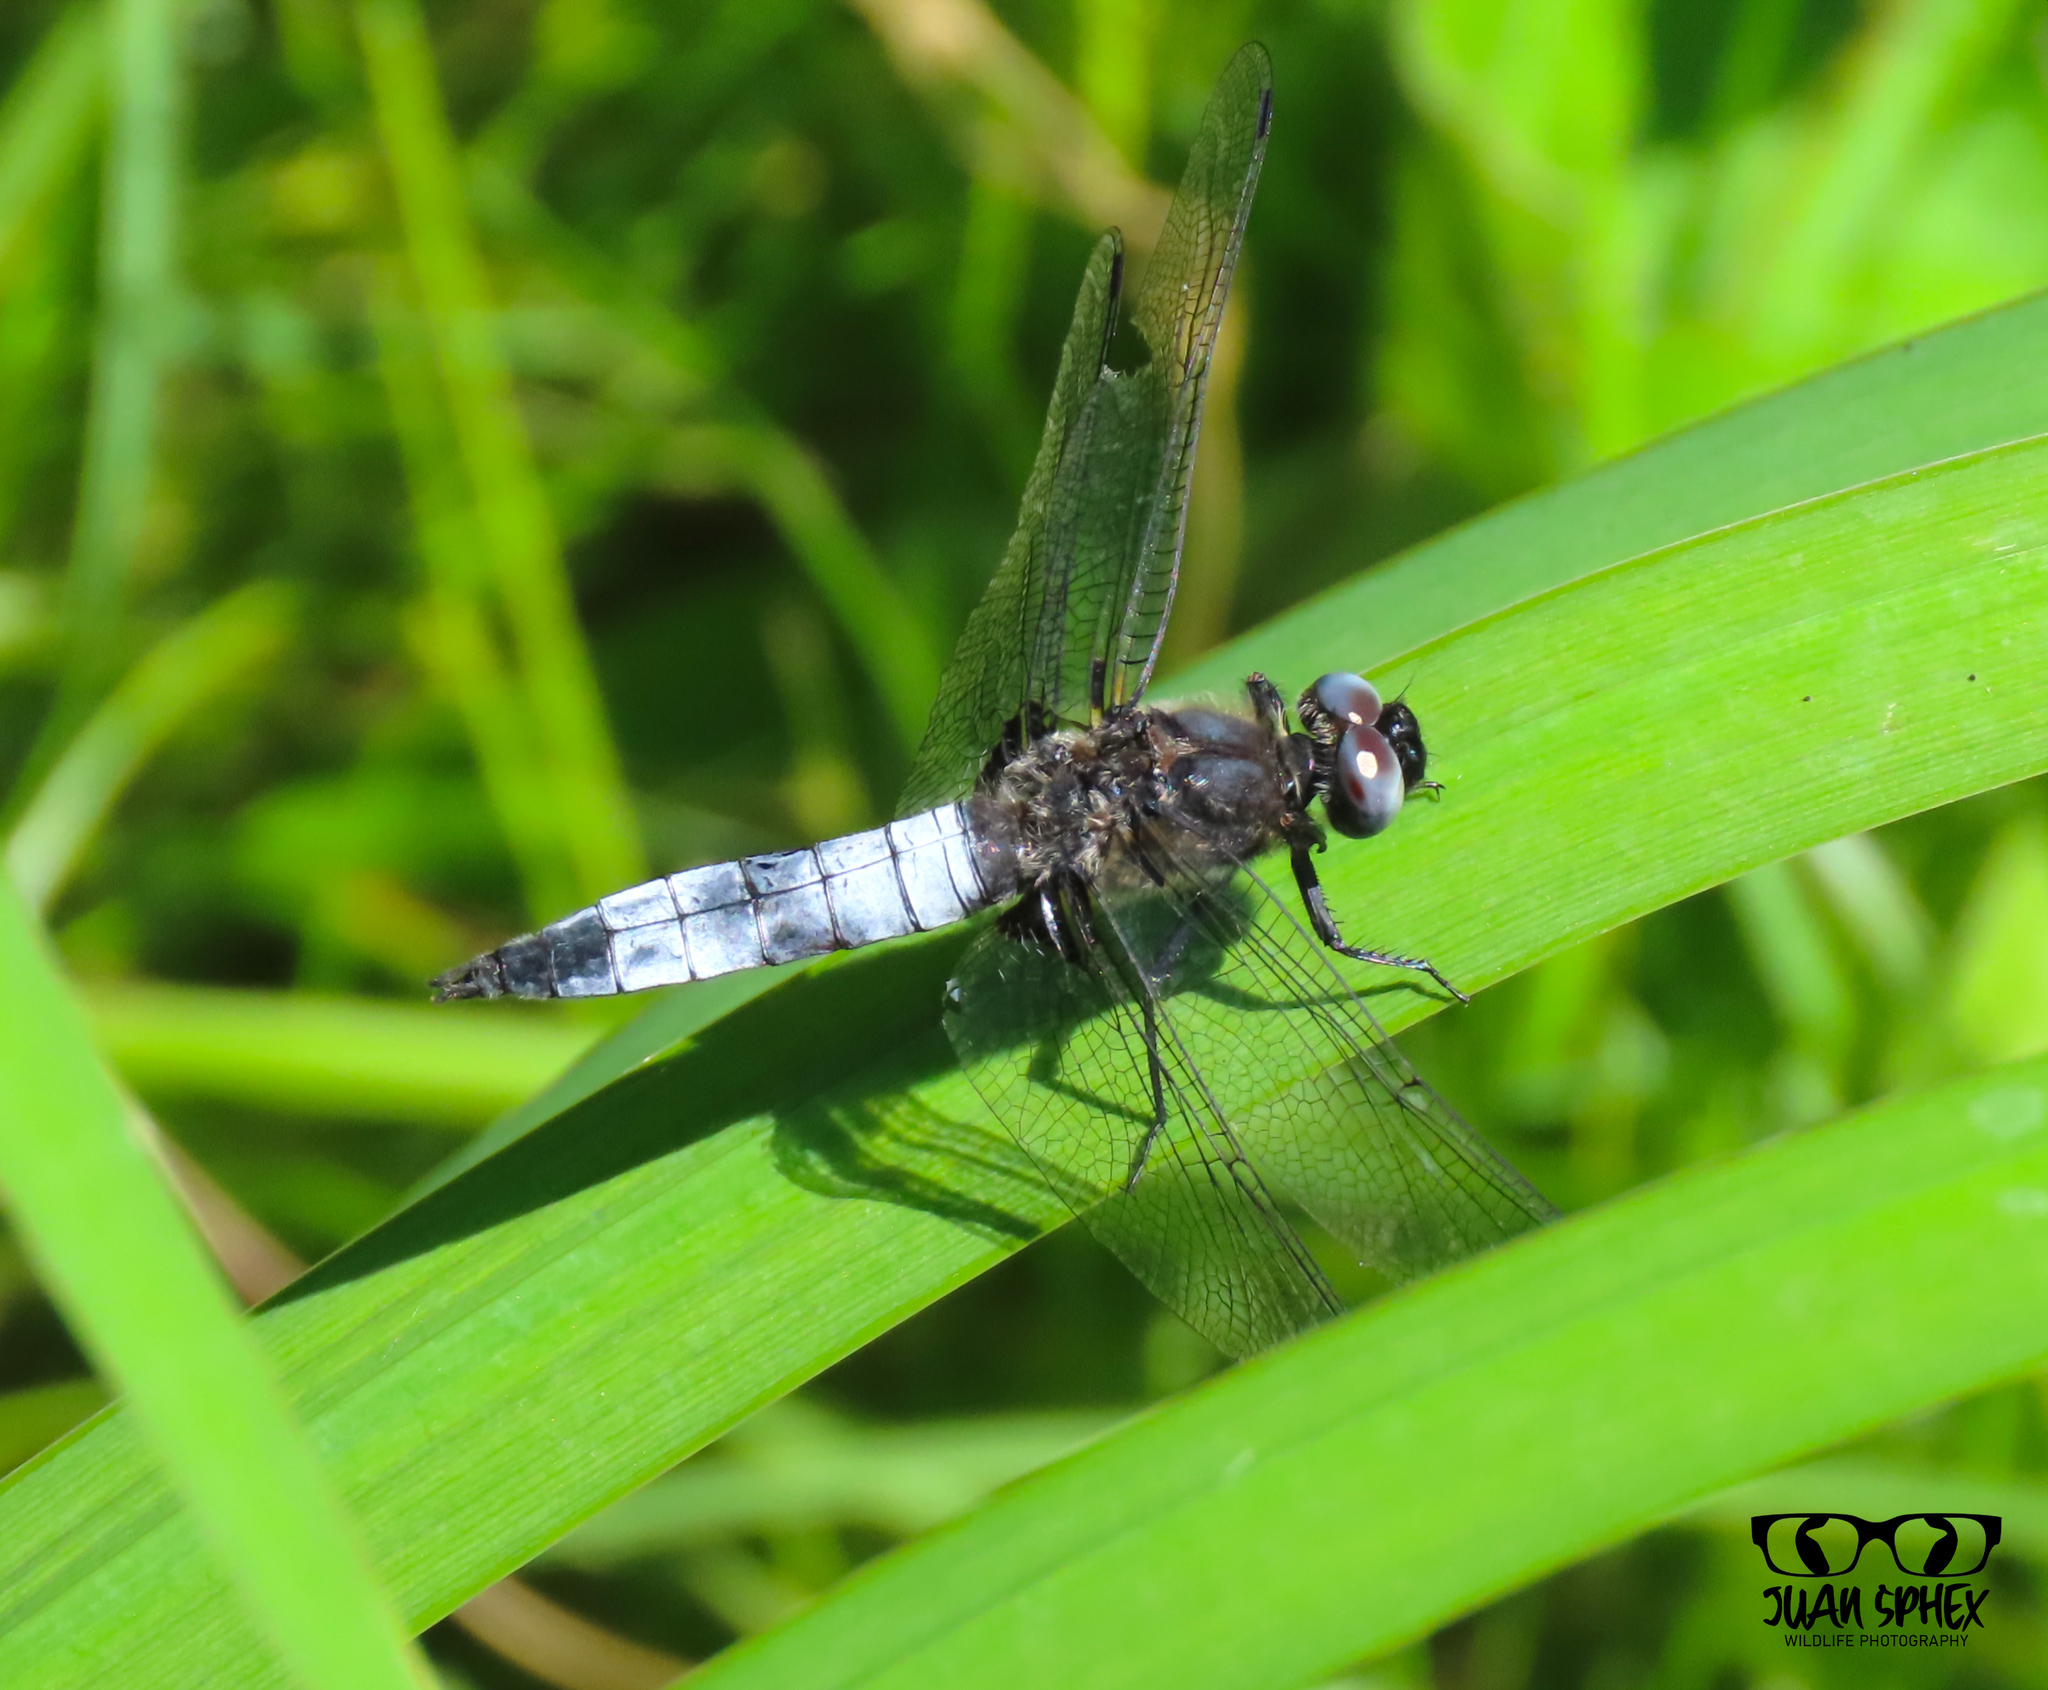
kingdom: Animalia
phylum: Arthropoda
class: Insecta
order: Odonata
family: Libellulidae
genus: Libellula
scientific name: Libellula fulva
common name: Blue chaser
